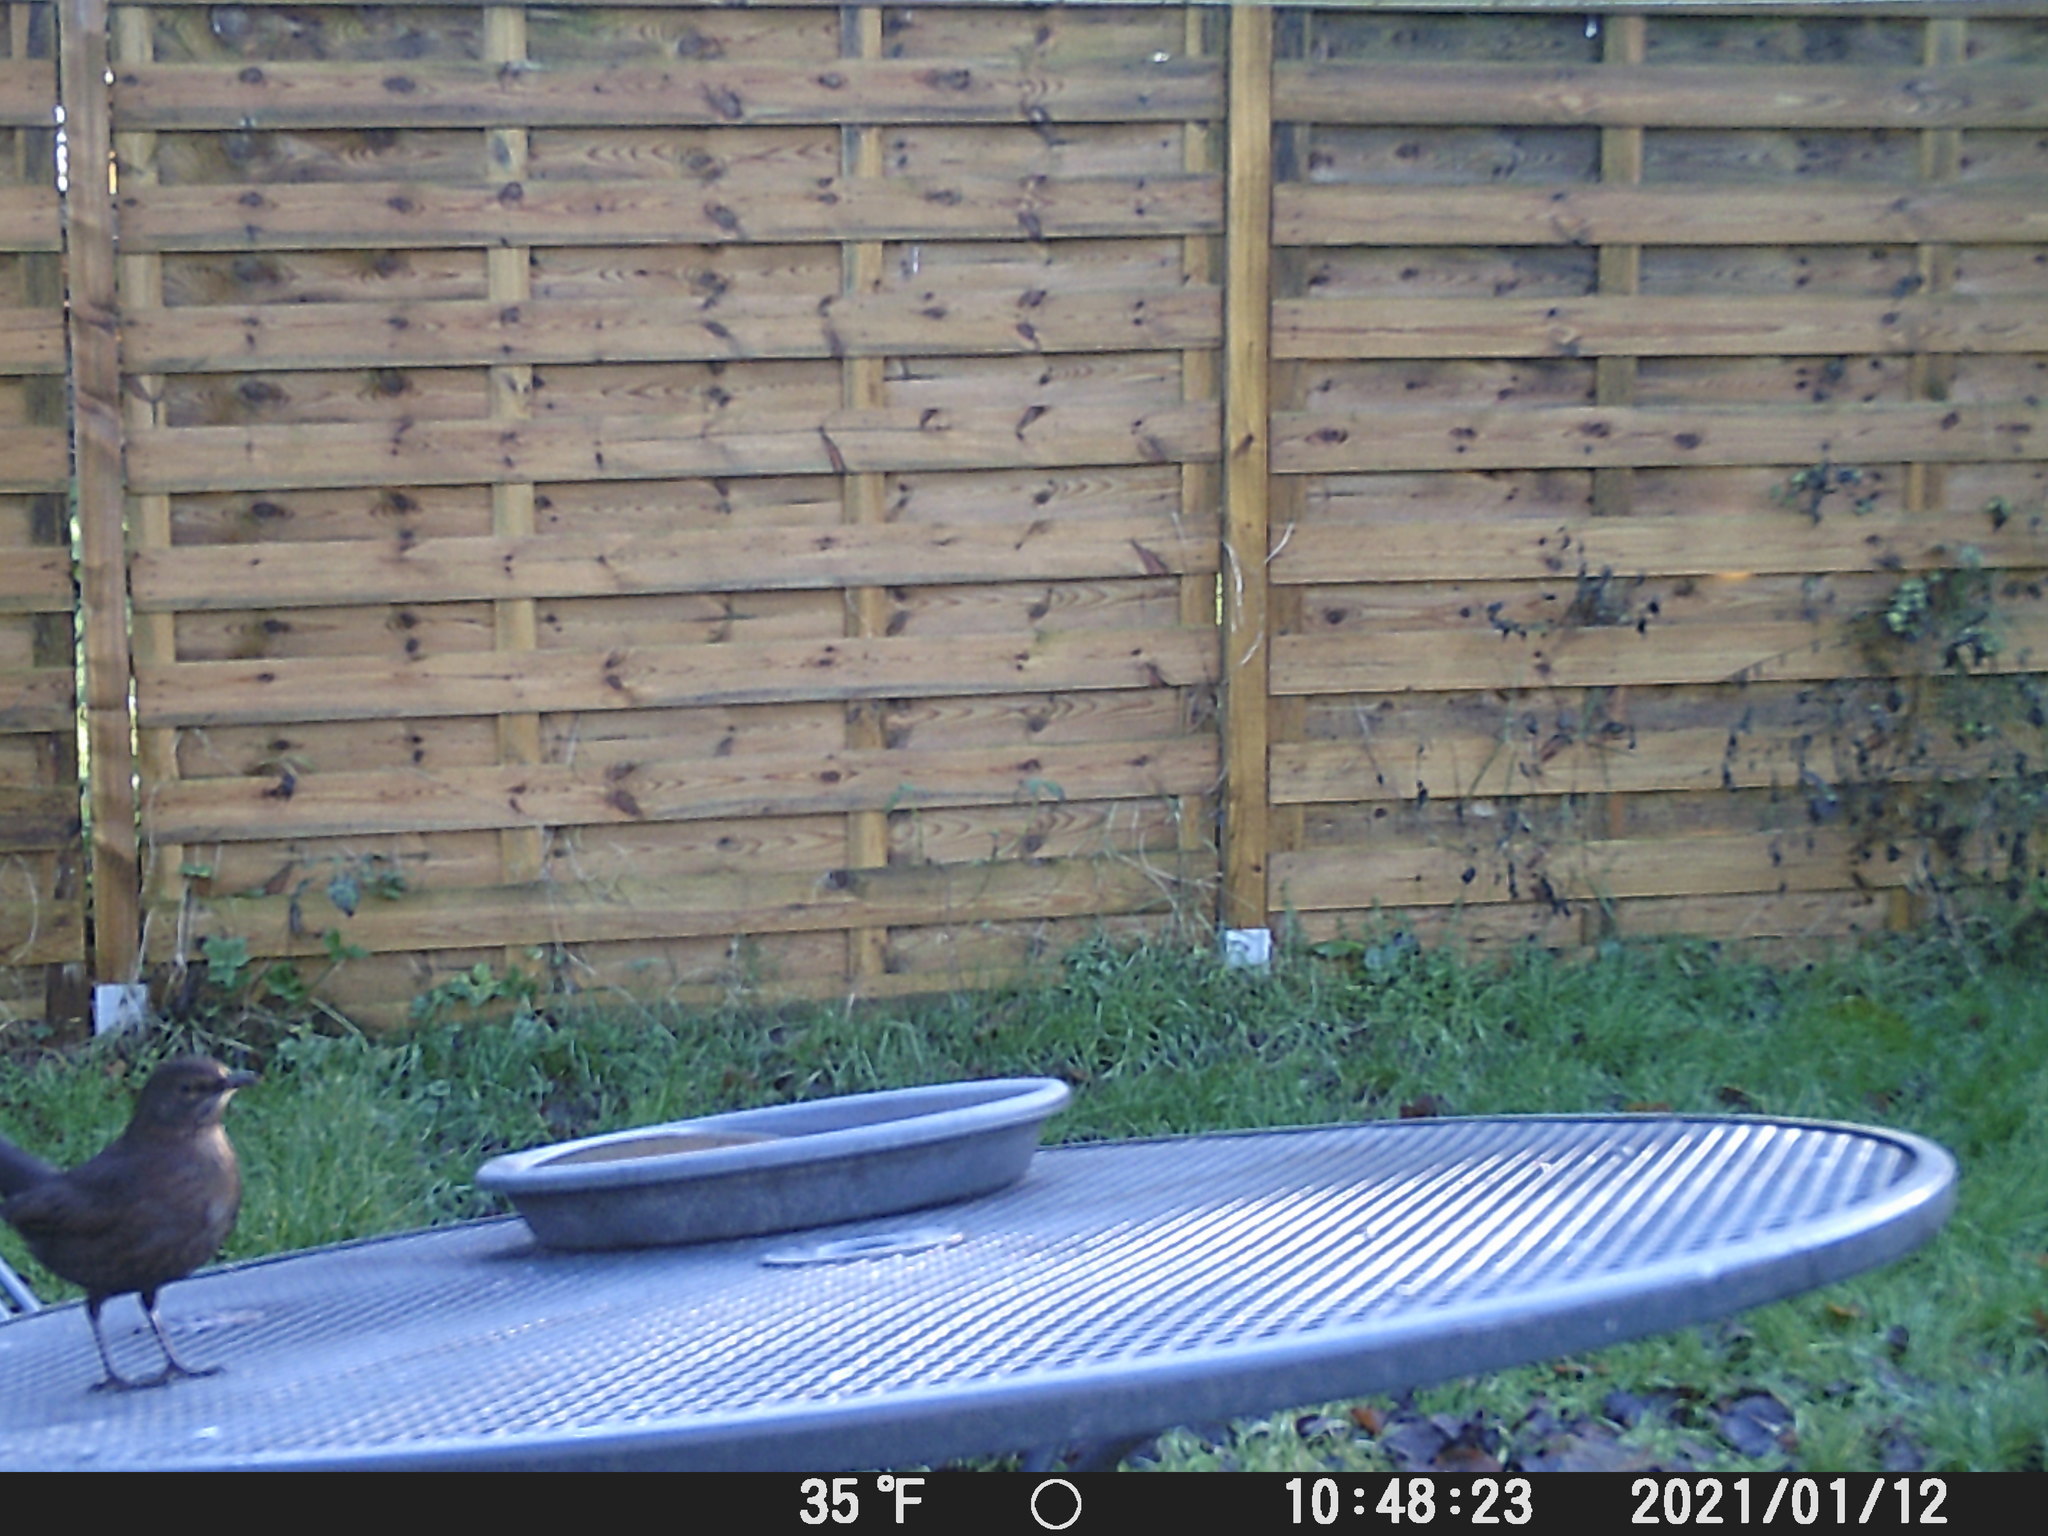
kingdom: Animalia
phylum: Chordata
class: Aves
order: Passeriformes
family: Turdidae
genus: Turdus
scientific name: Turdus merula
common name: Common blackbird
